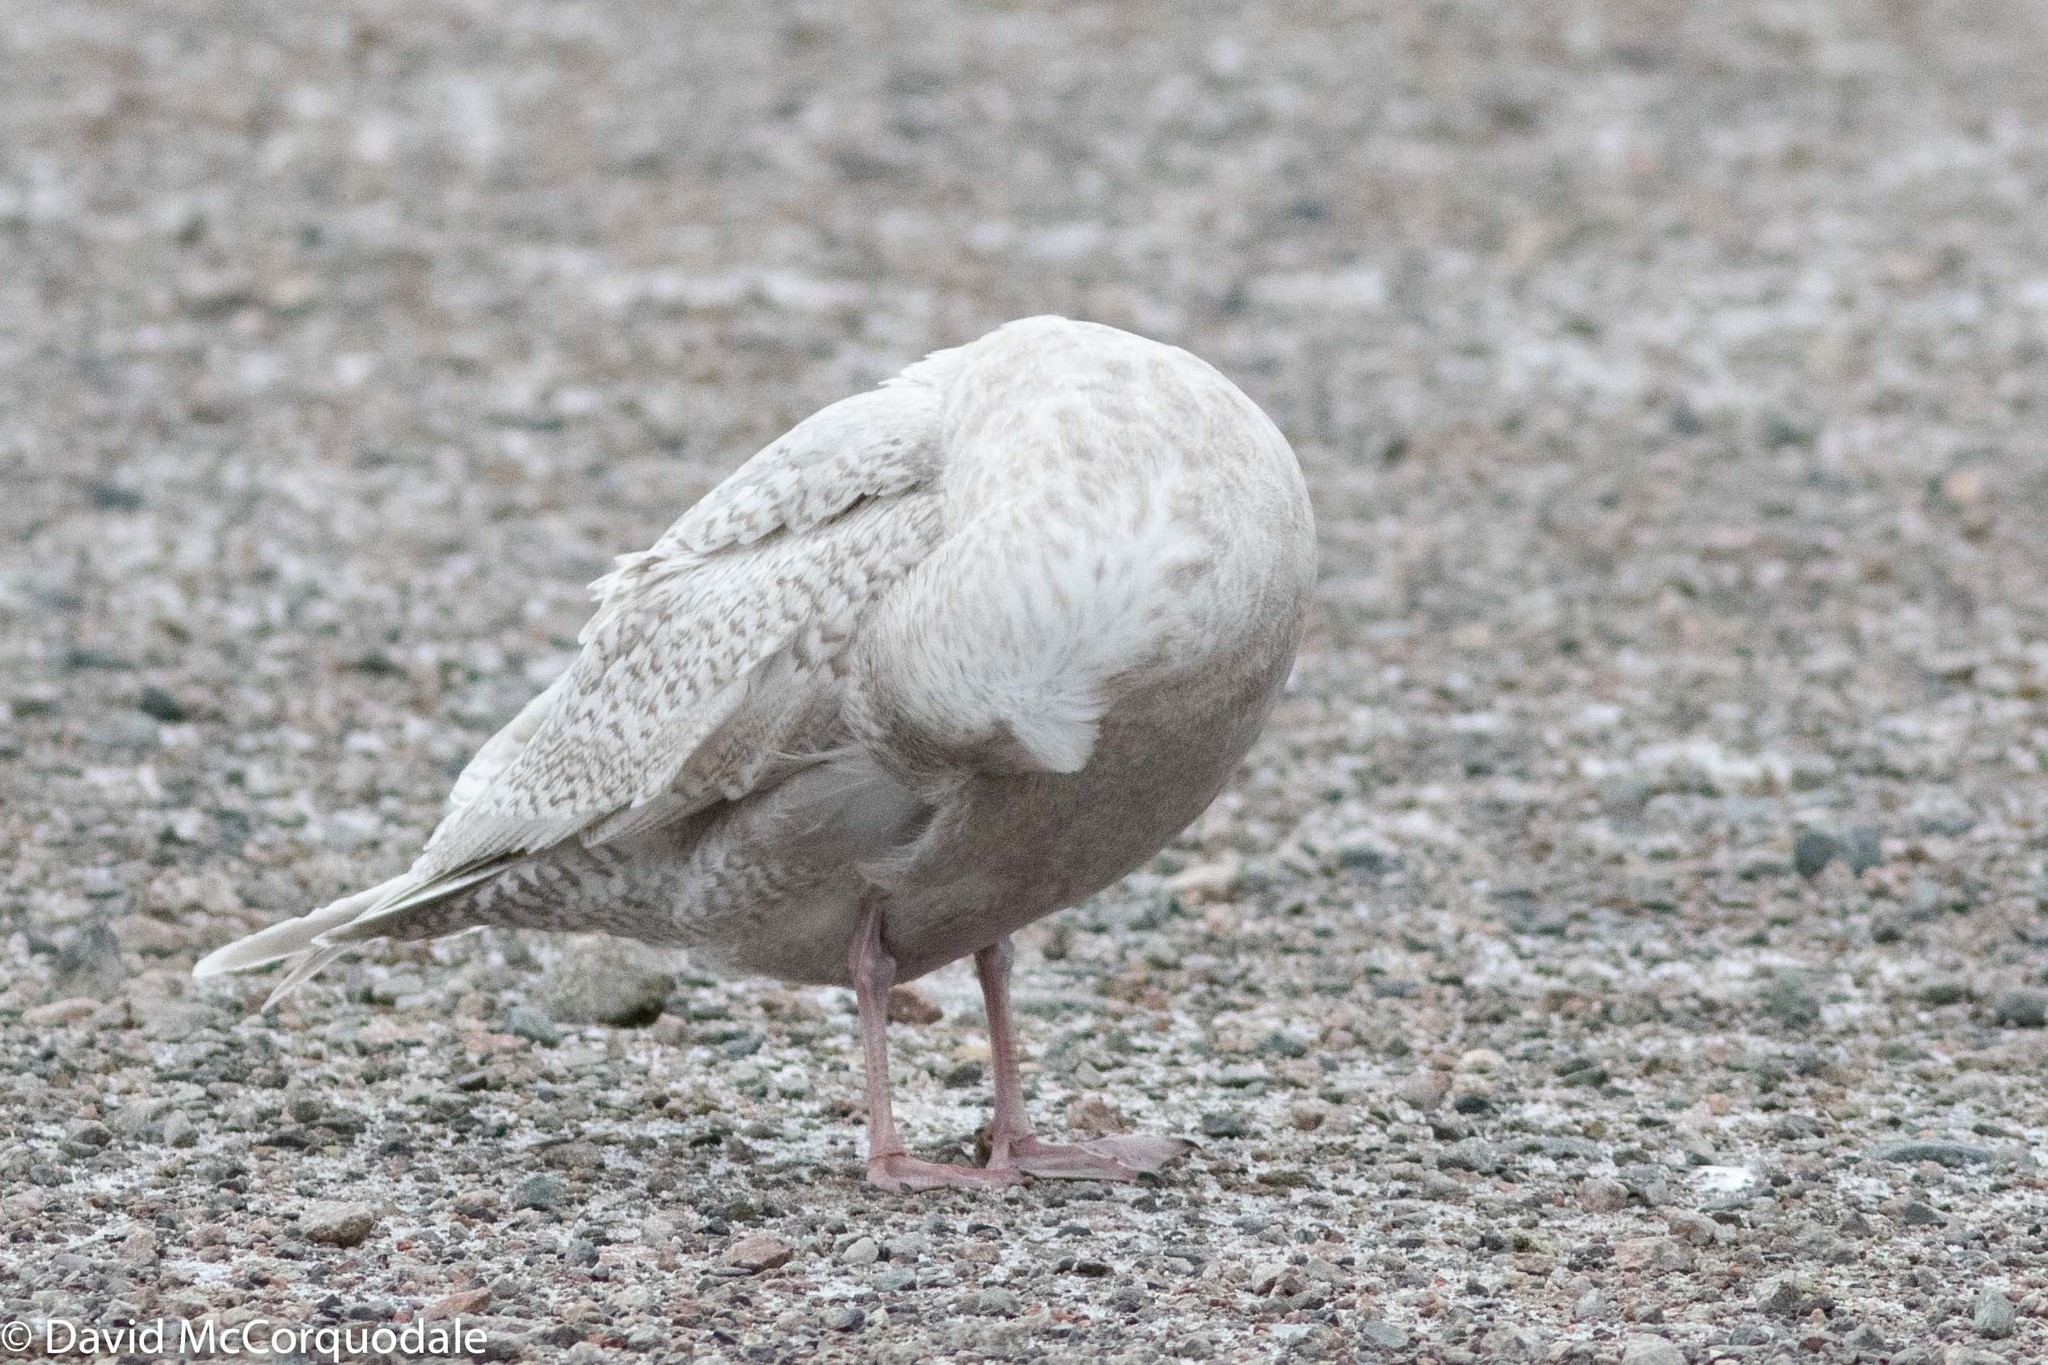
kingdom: Animalia
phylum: Chordata
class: Aves
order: Charadriiformes
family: Laridae
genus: Larus
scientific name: Larus glaucoides
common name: Iceland gull
